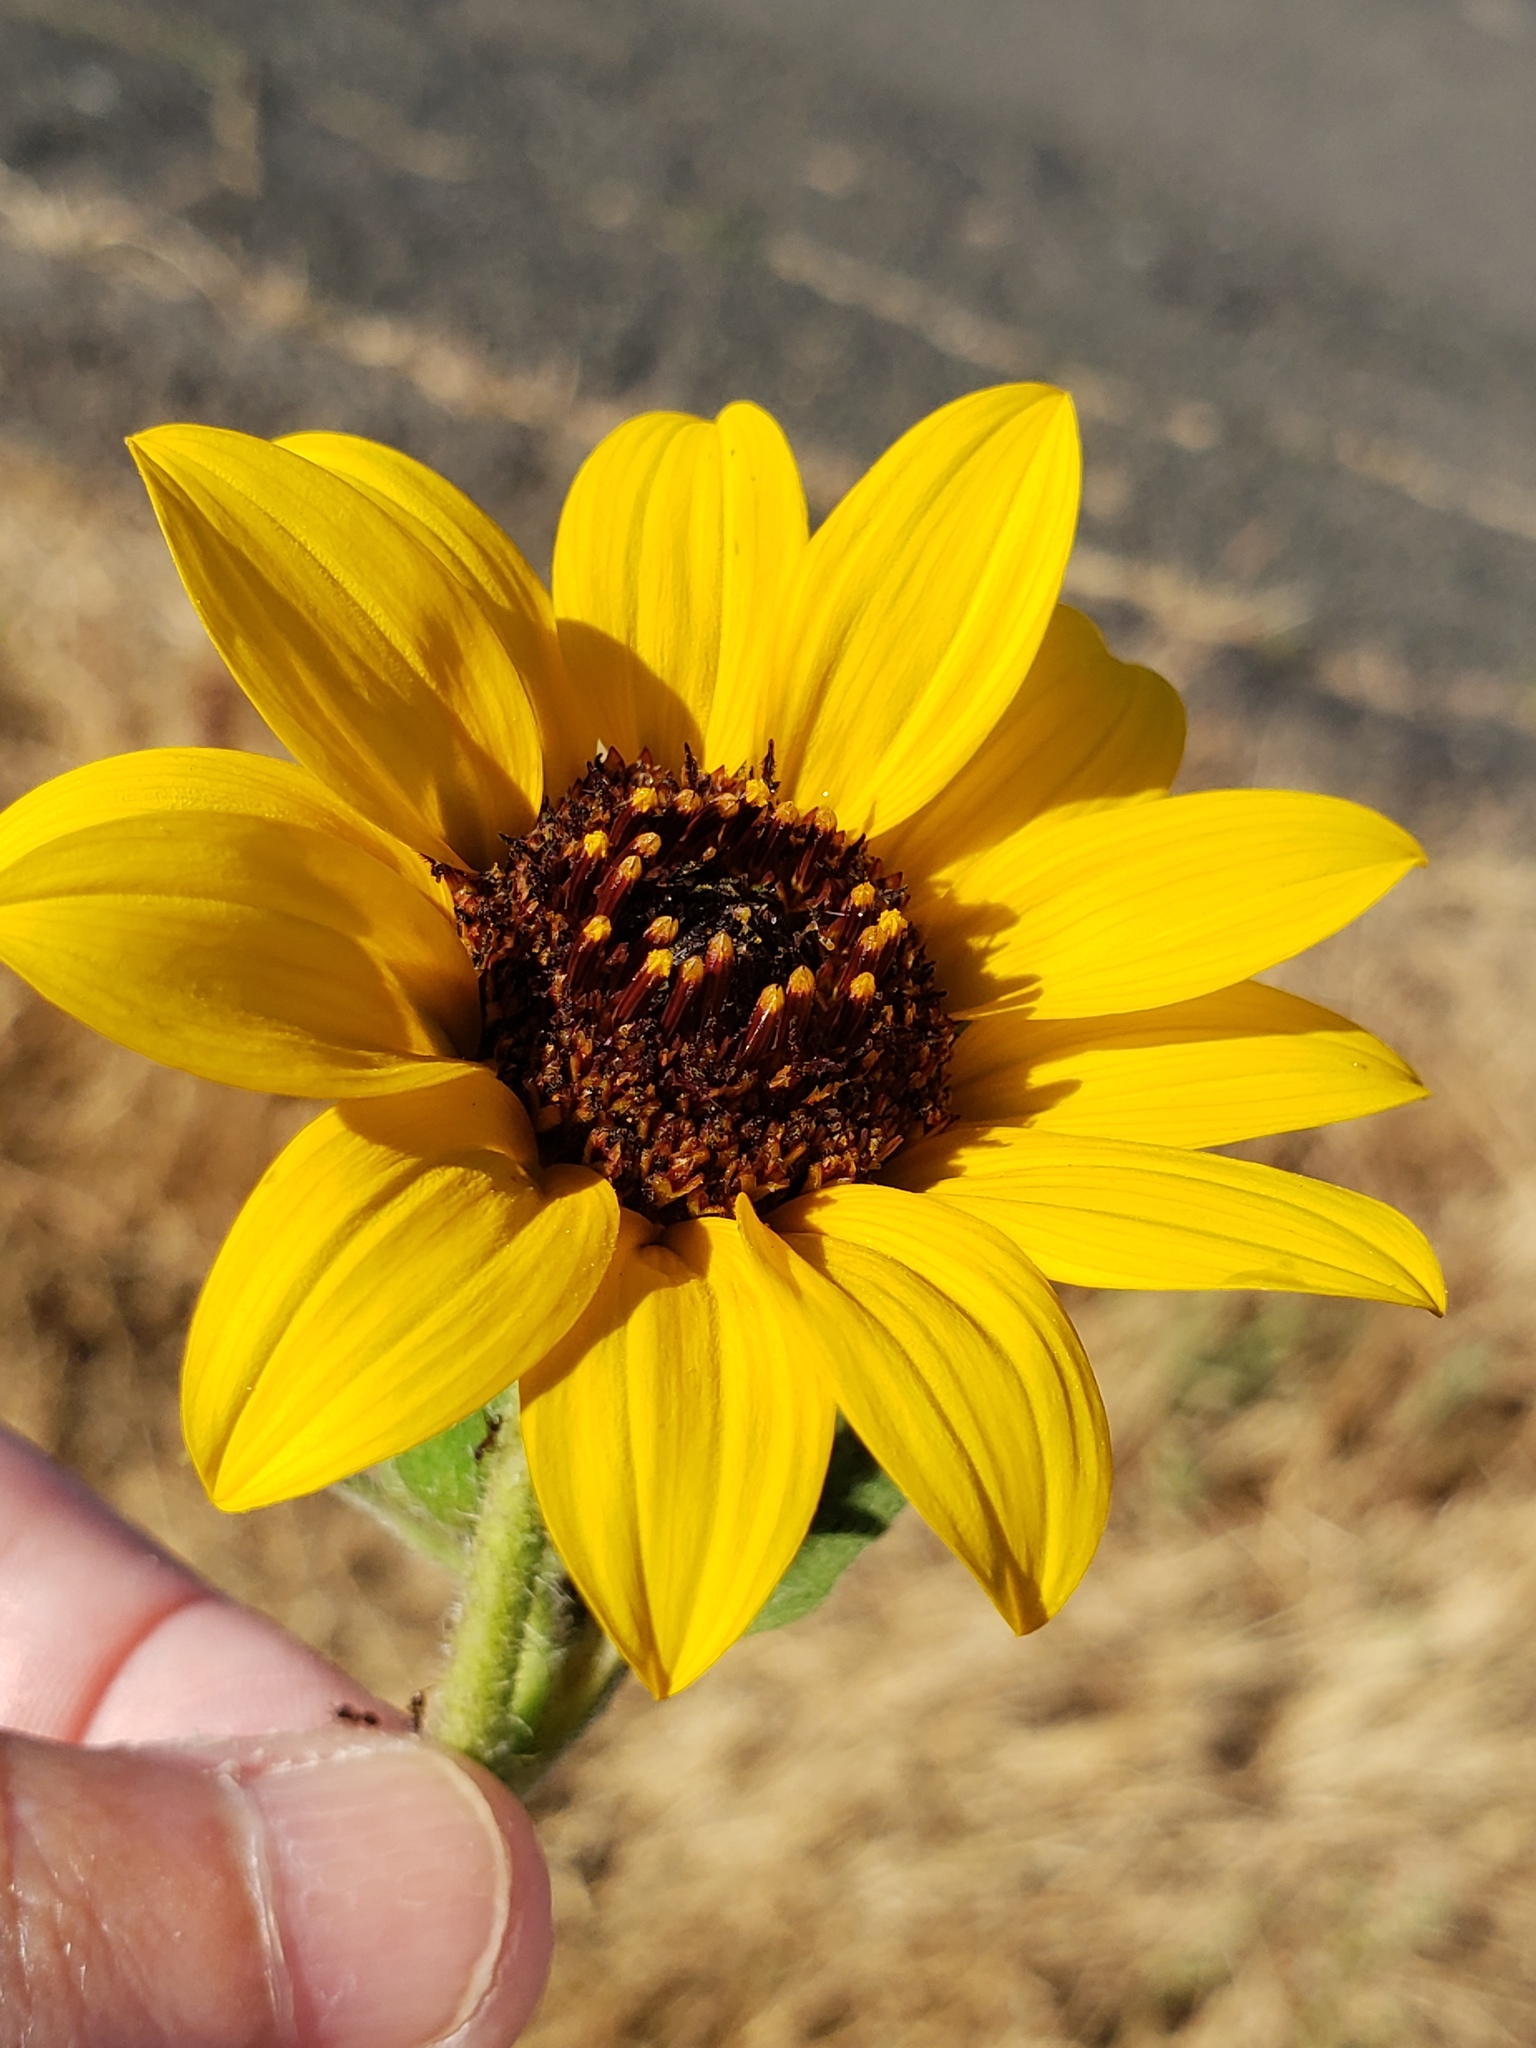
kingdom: Plantae
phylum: Tracheophyta
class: Magnoliopsida
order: Asterales
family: Asteraceae
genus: Helianthus
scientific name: Helianthus annuus
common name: Sunflower
